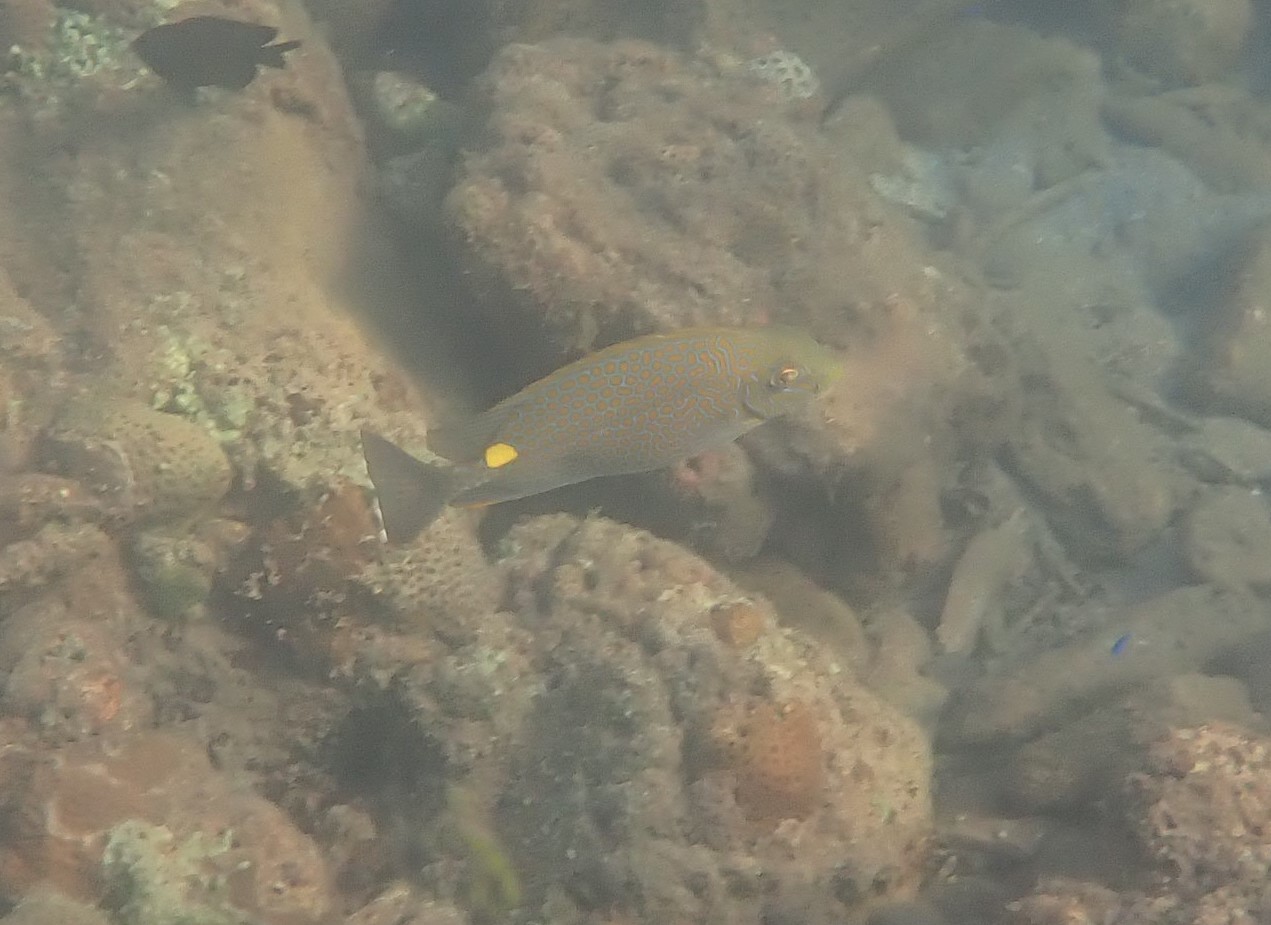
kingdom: Animalia
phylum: Chordata
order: Perciformes
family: Siganidae
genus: Siganus
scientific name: Siganus guttatus
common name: Golden rabbitfish
